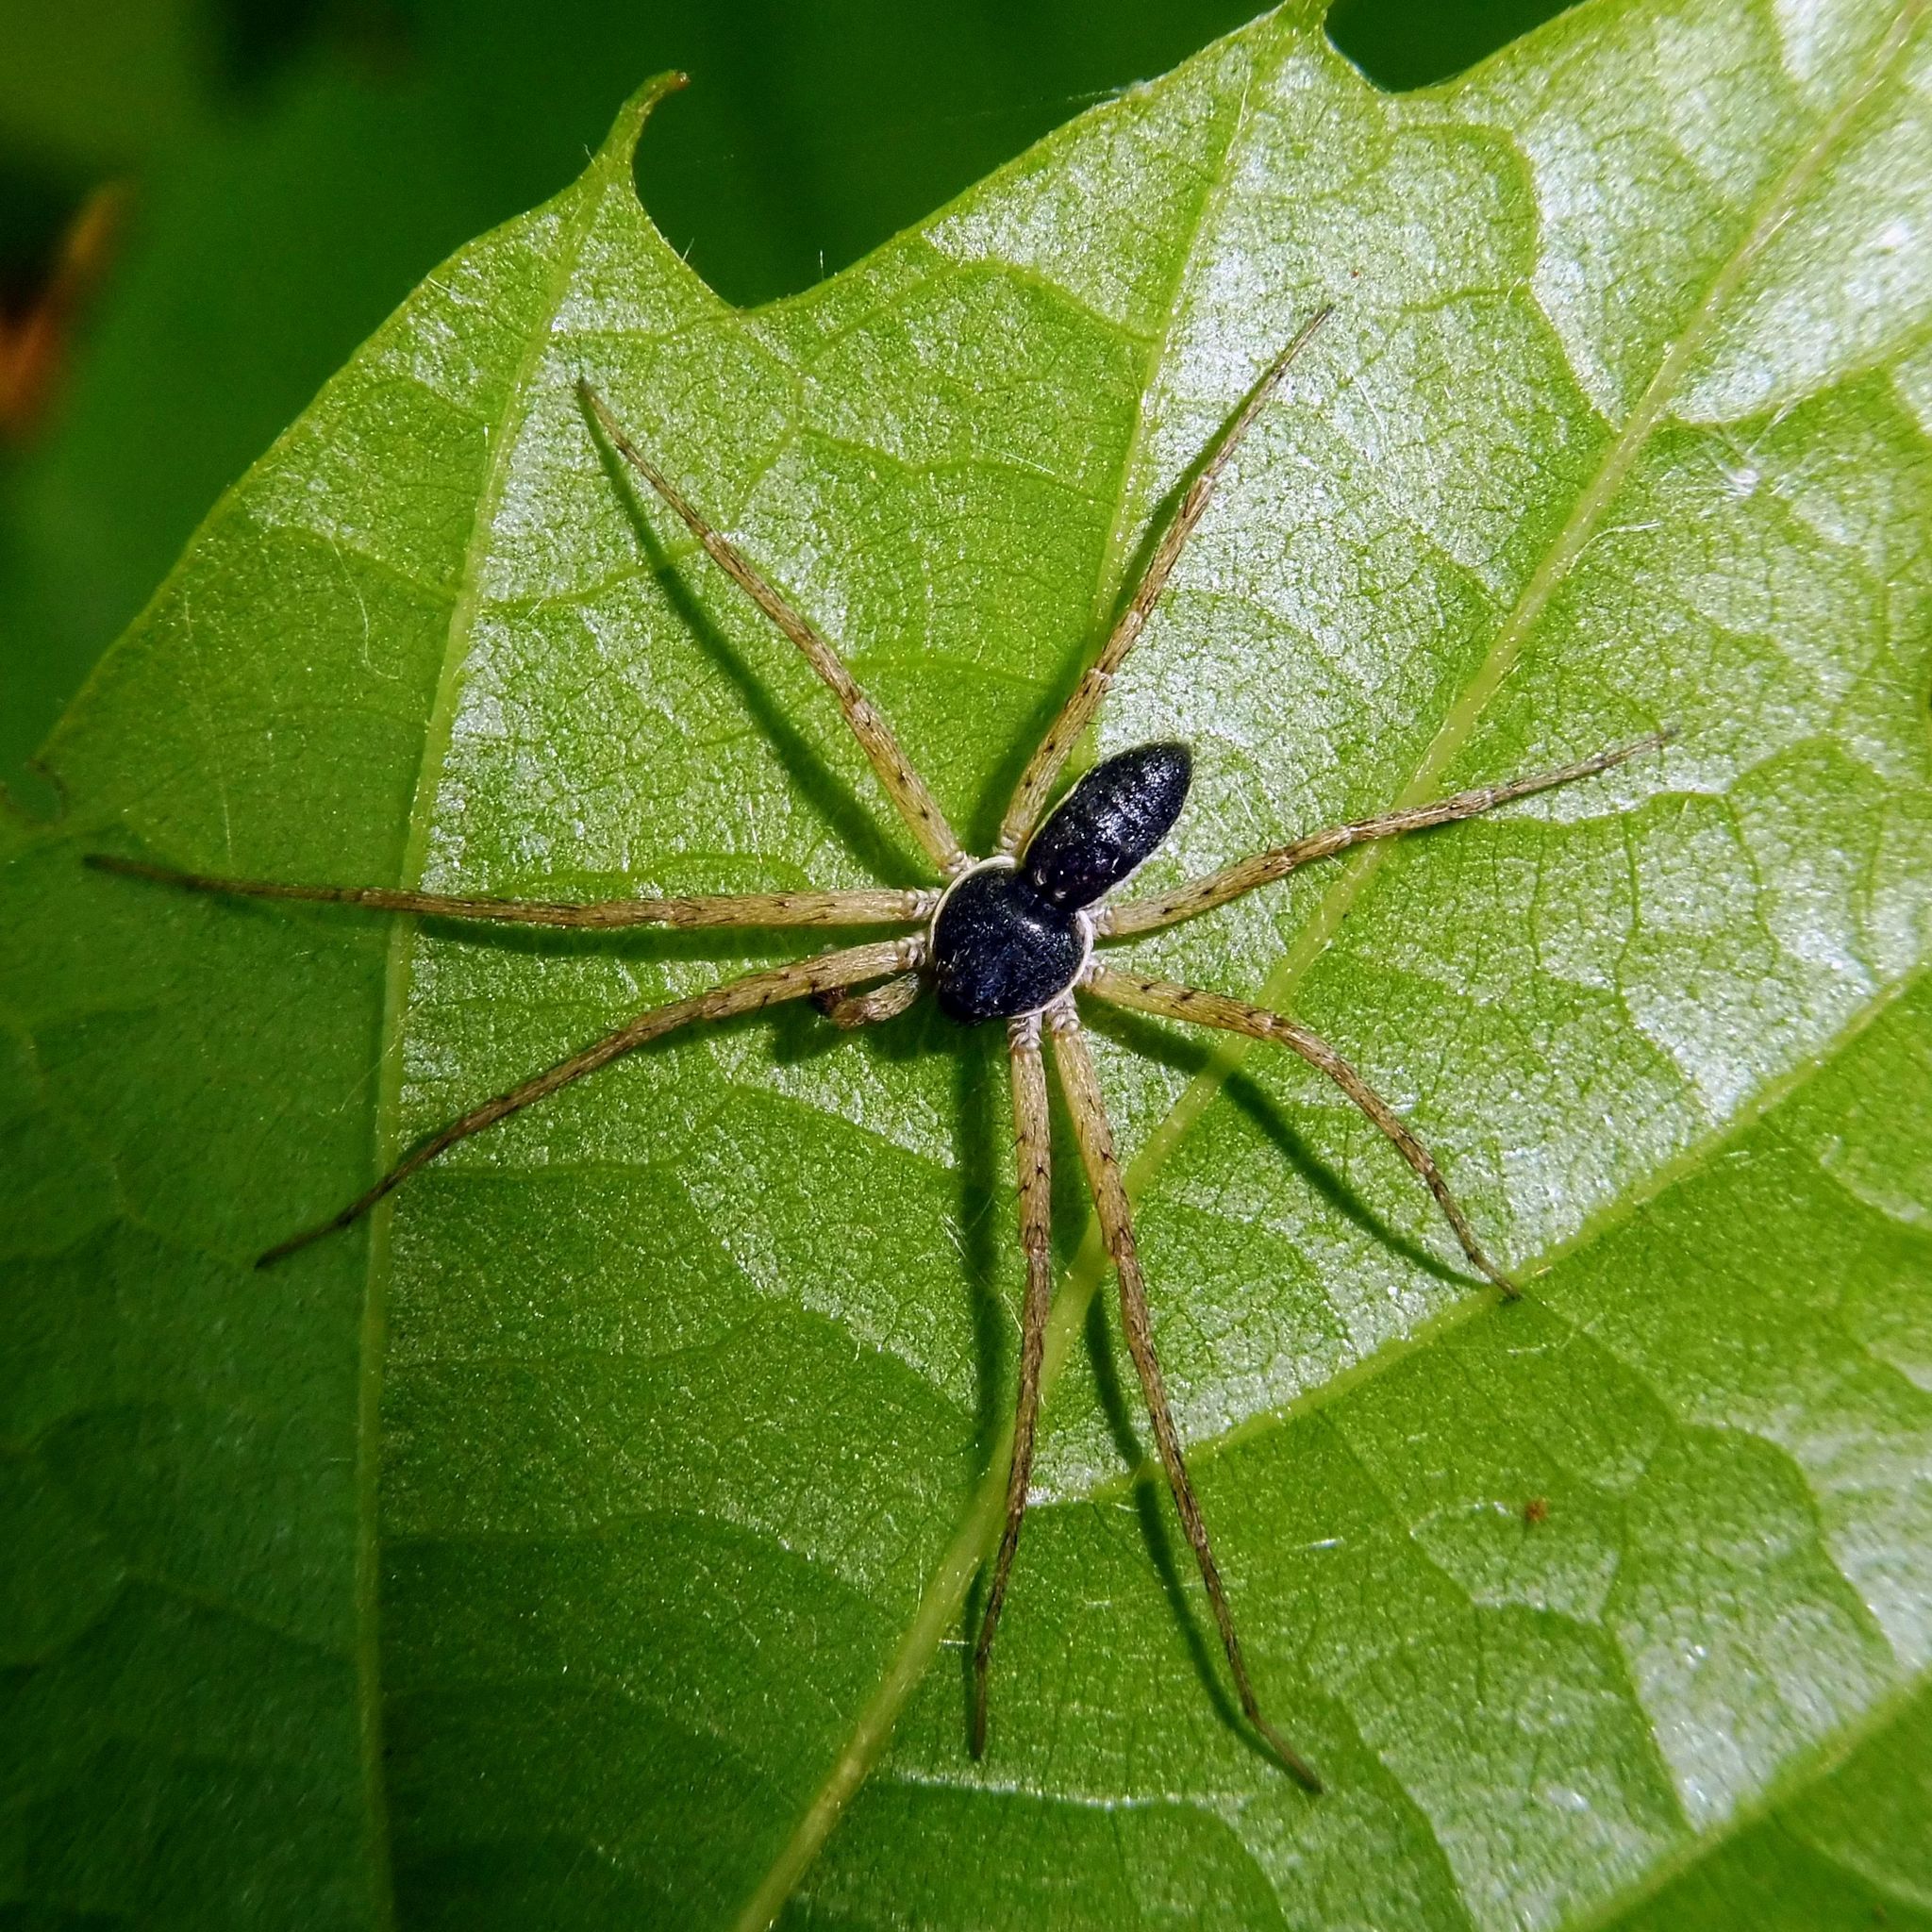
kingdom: Animalia
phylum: Arthropoda
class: Arachnida
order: Araneae
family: Philodromidae
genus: Philodromus
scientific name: Philodromus dispar
